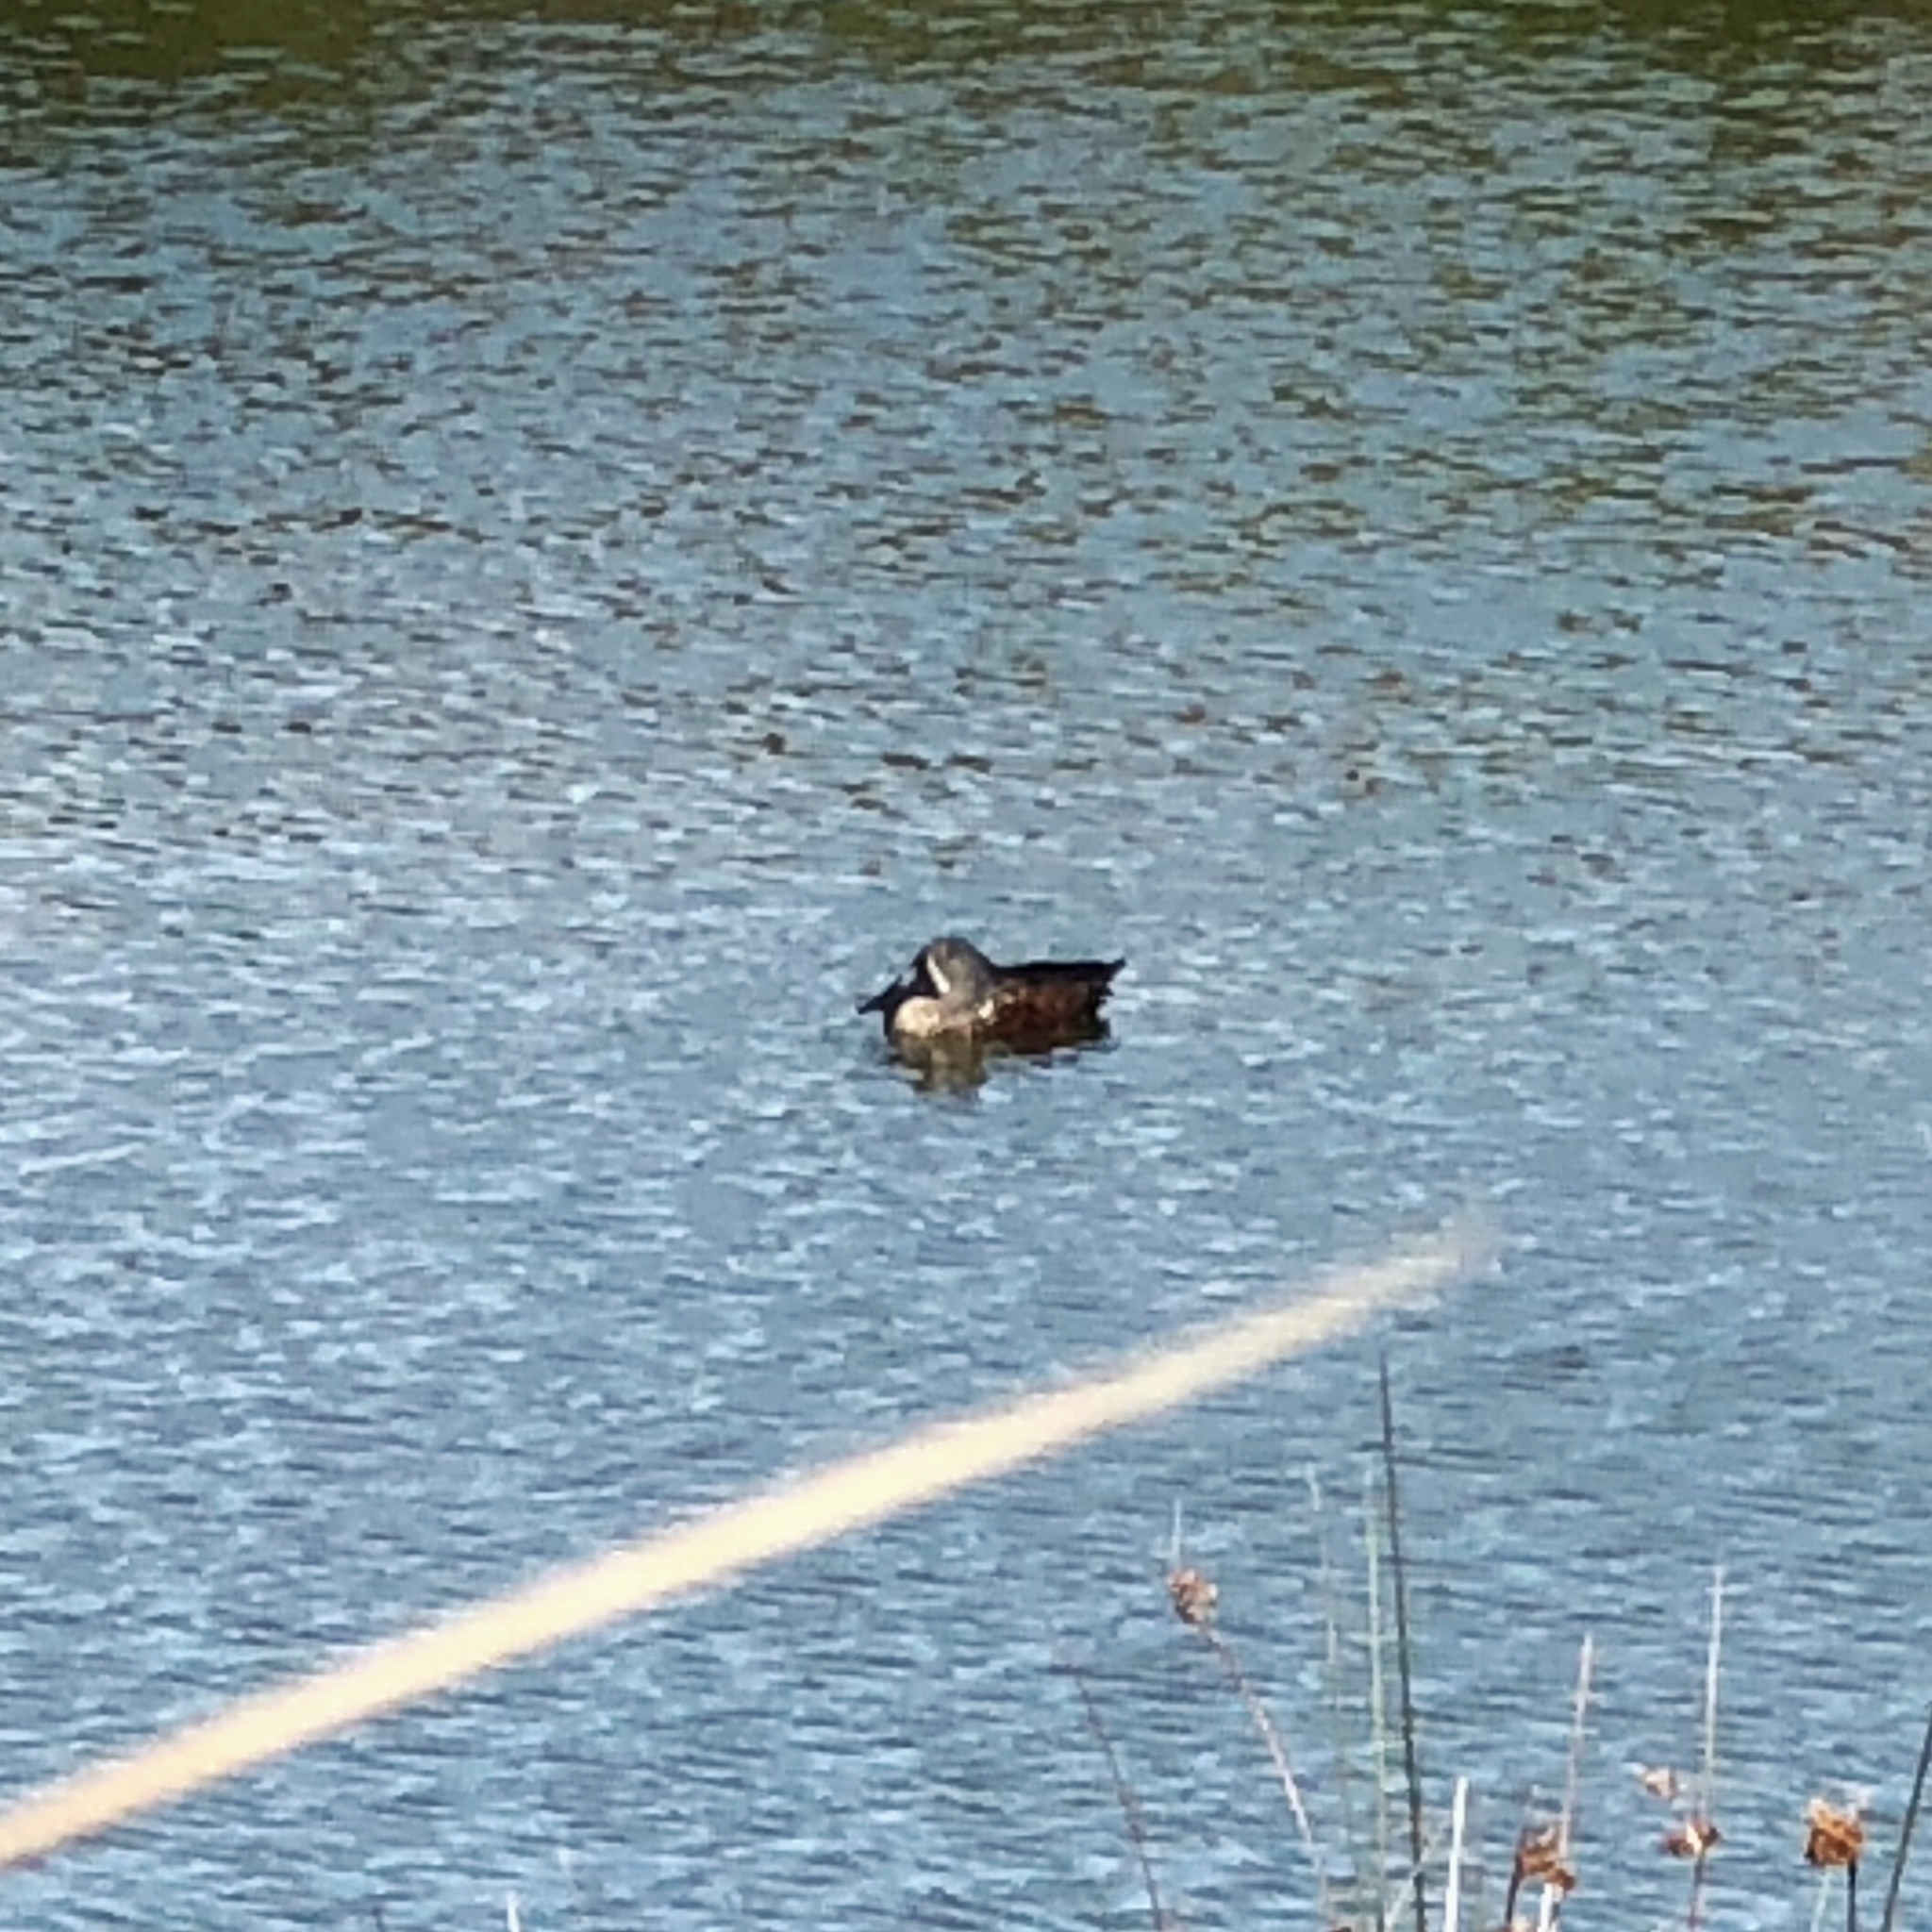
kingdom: Animalia
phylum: Chordata
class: Aves
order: Anseriformes
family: Anatidae
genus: Spatula
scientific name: Spatula rhynchotis
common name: Australian shoveler
